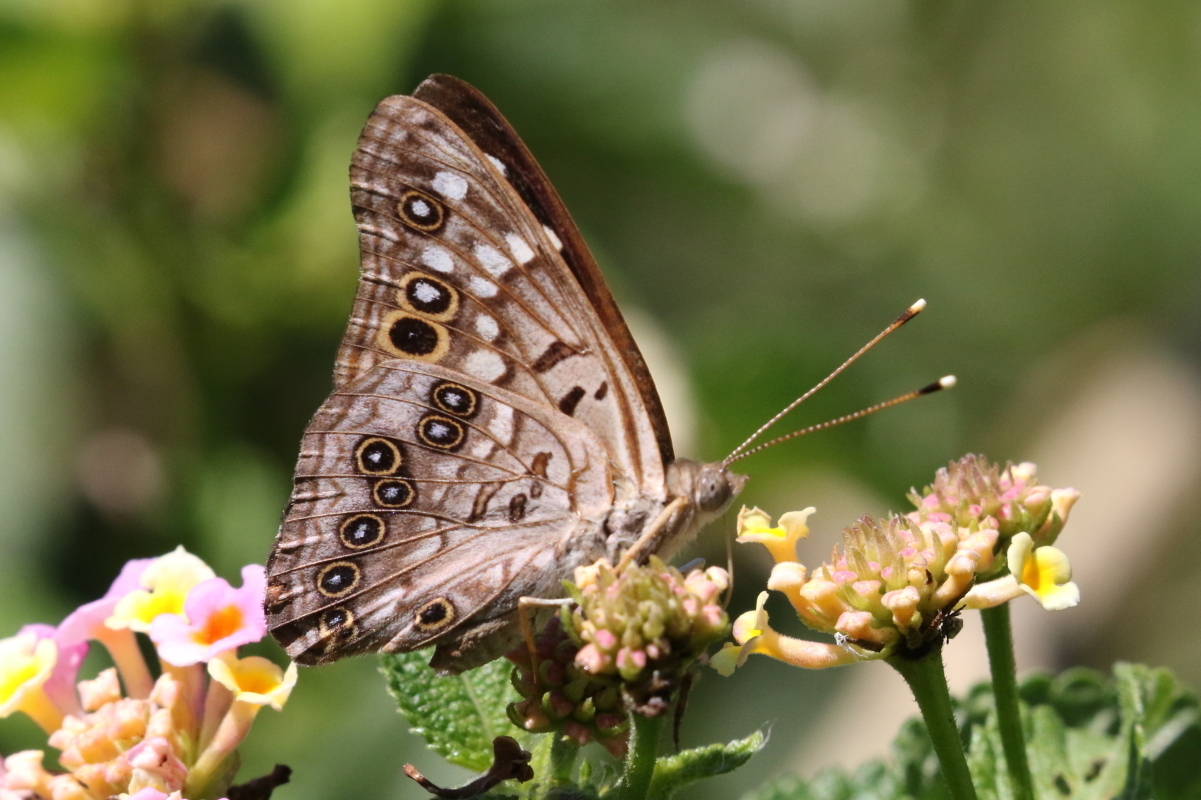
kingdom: Animalia
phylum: Arthropoda
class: Insecta
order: Lepidoptera
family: Nymphalidae
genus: Asterocampa
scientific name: Asterocampa celtis
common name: Hackberry emperor
